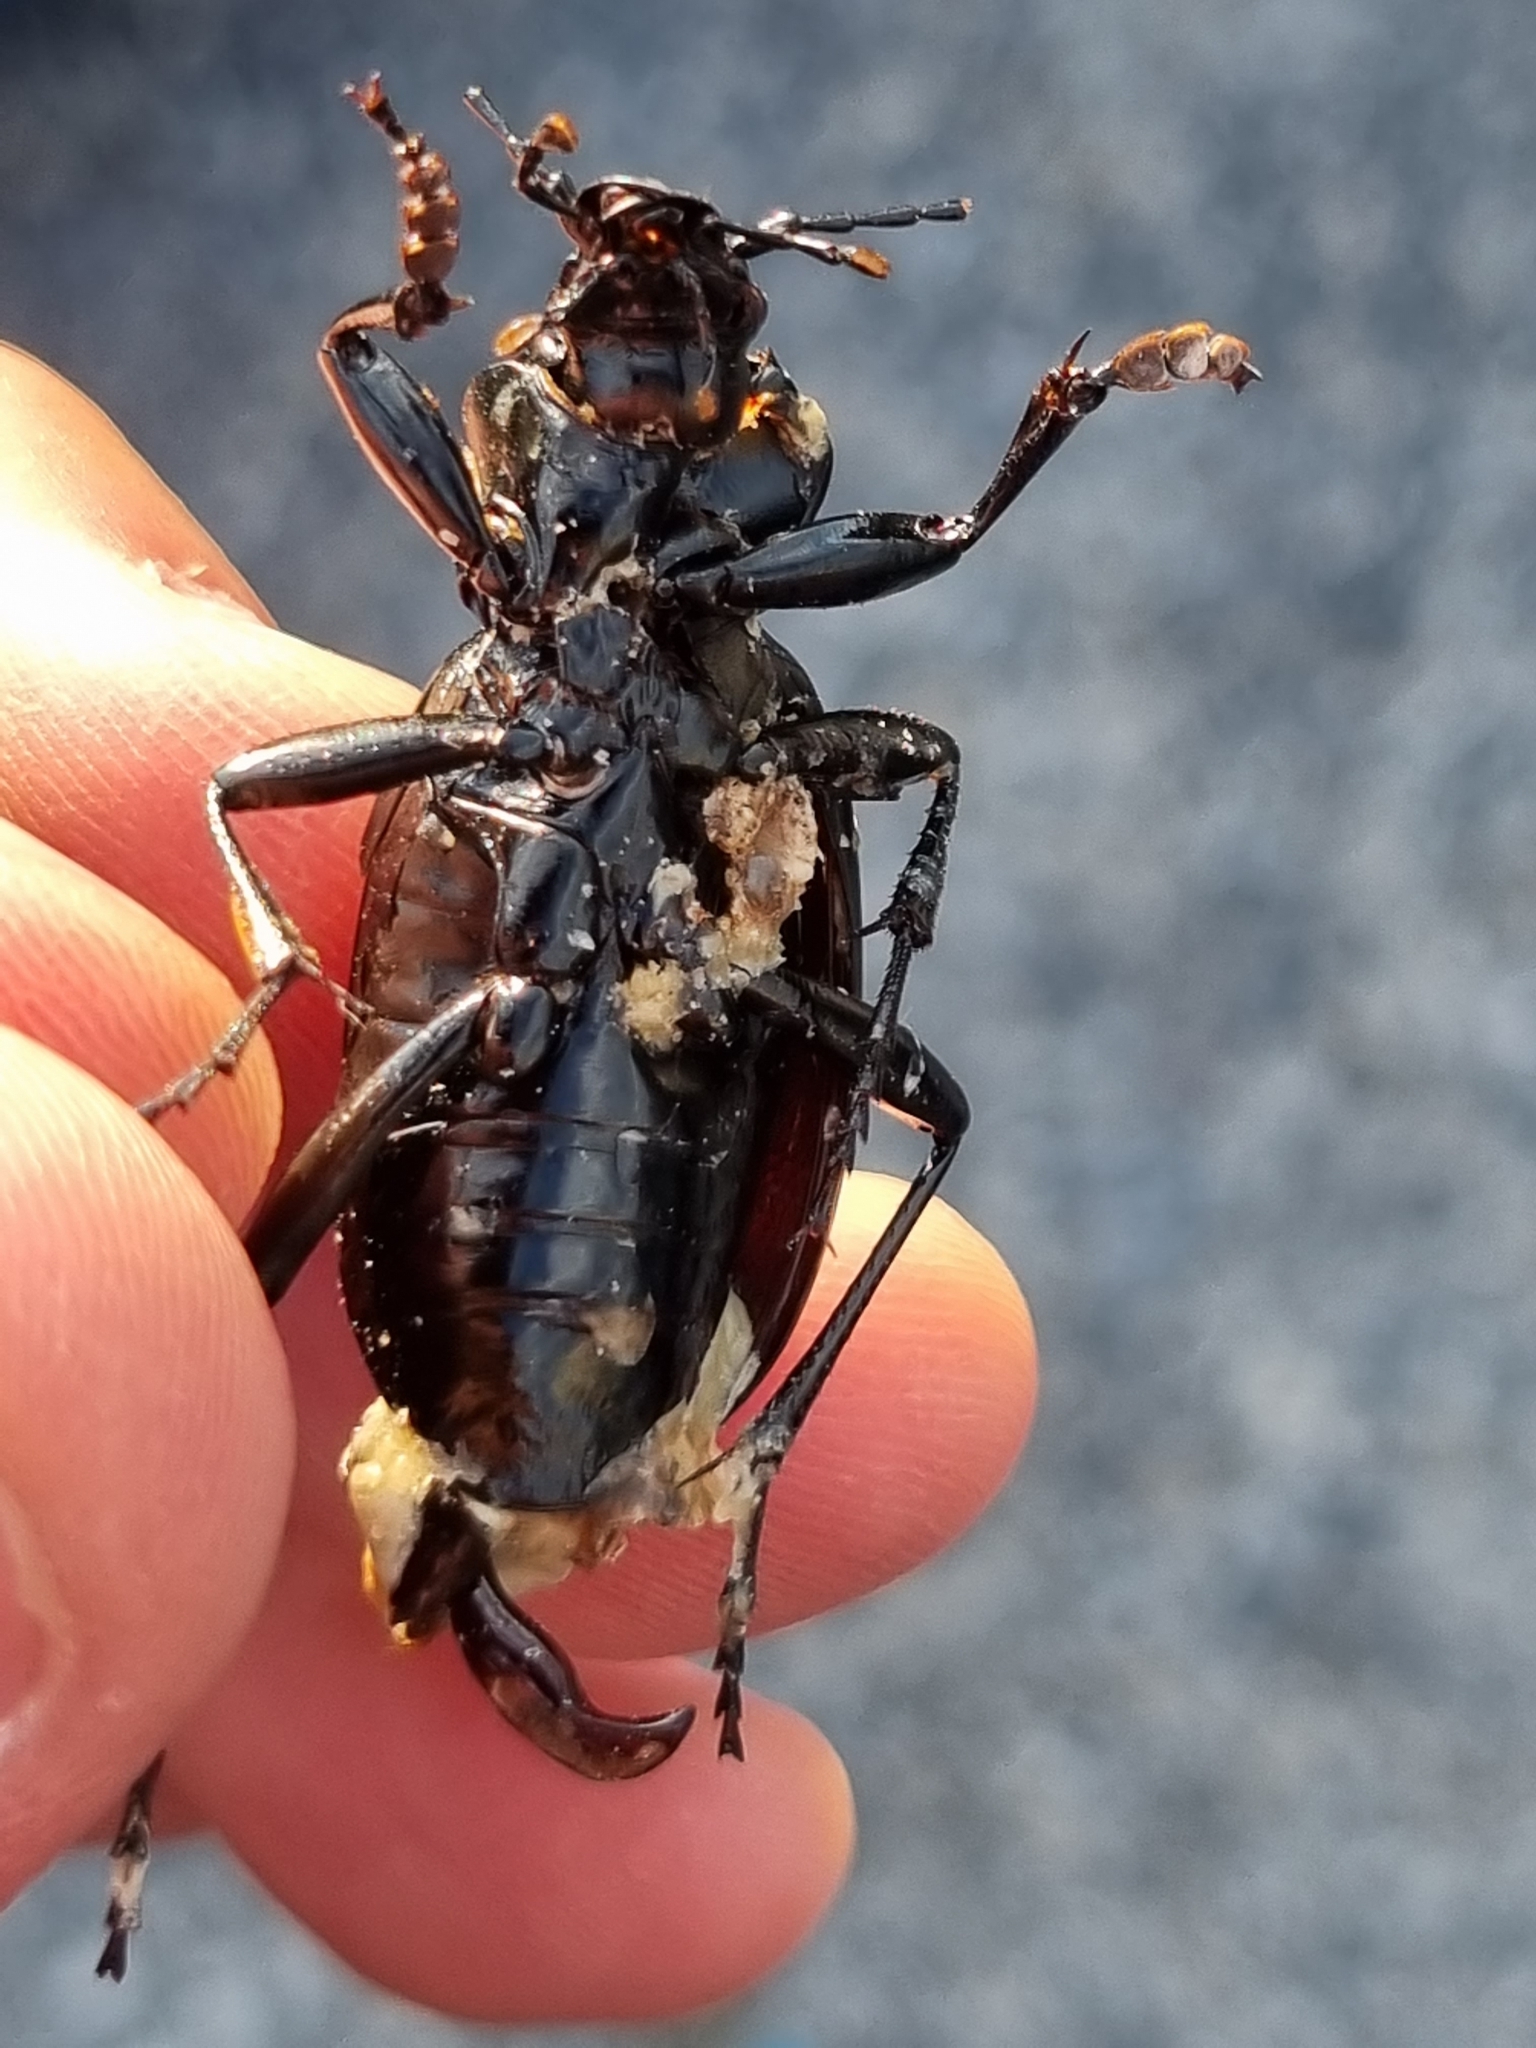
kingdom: Animalia
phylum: Arthropoda
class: Insecta
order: Coleoptera
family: Carabidae
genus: Carabus
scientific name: Carabus coriaceus
